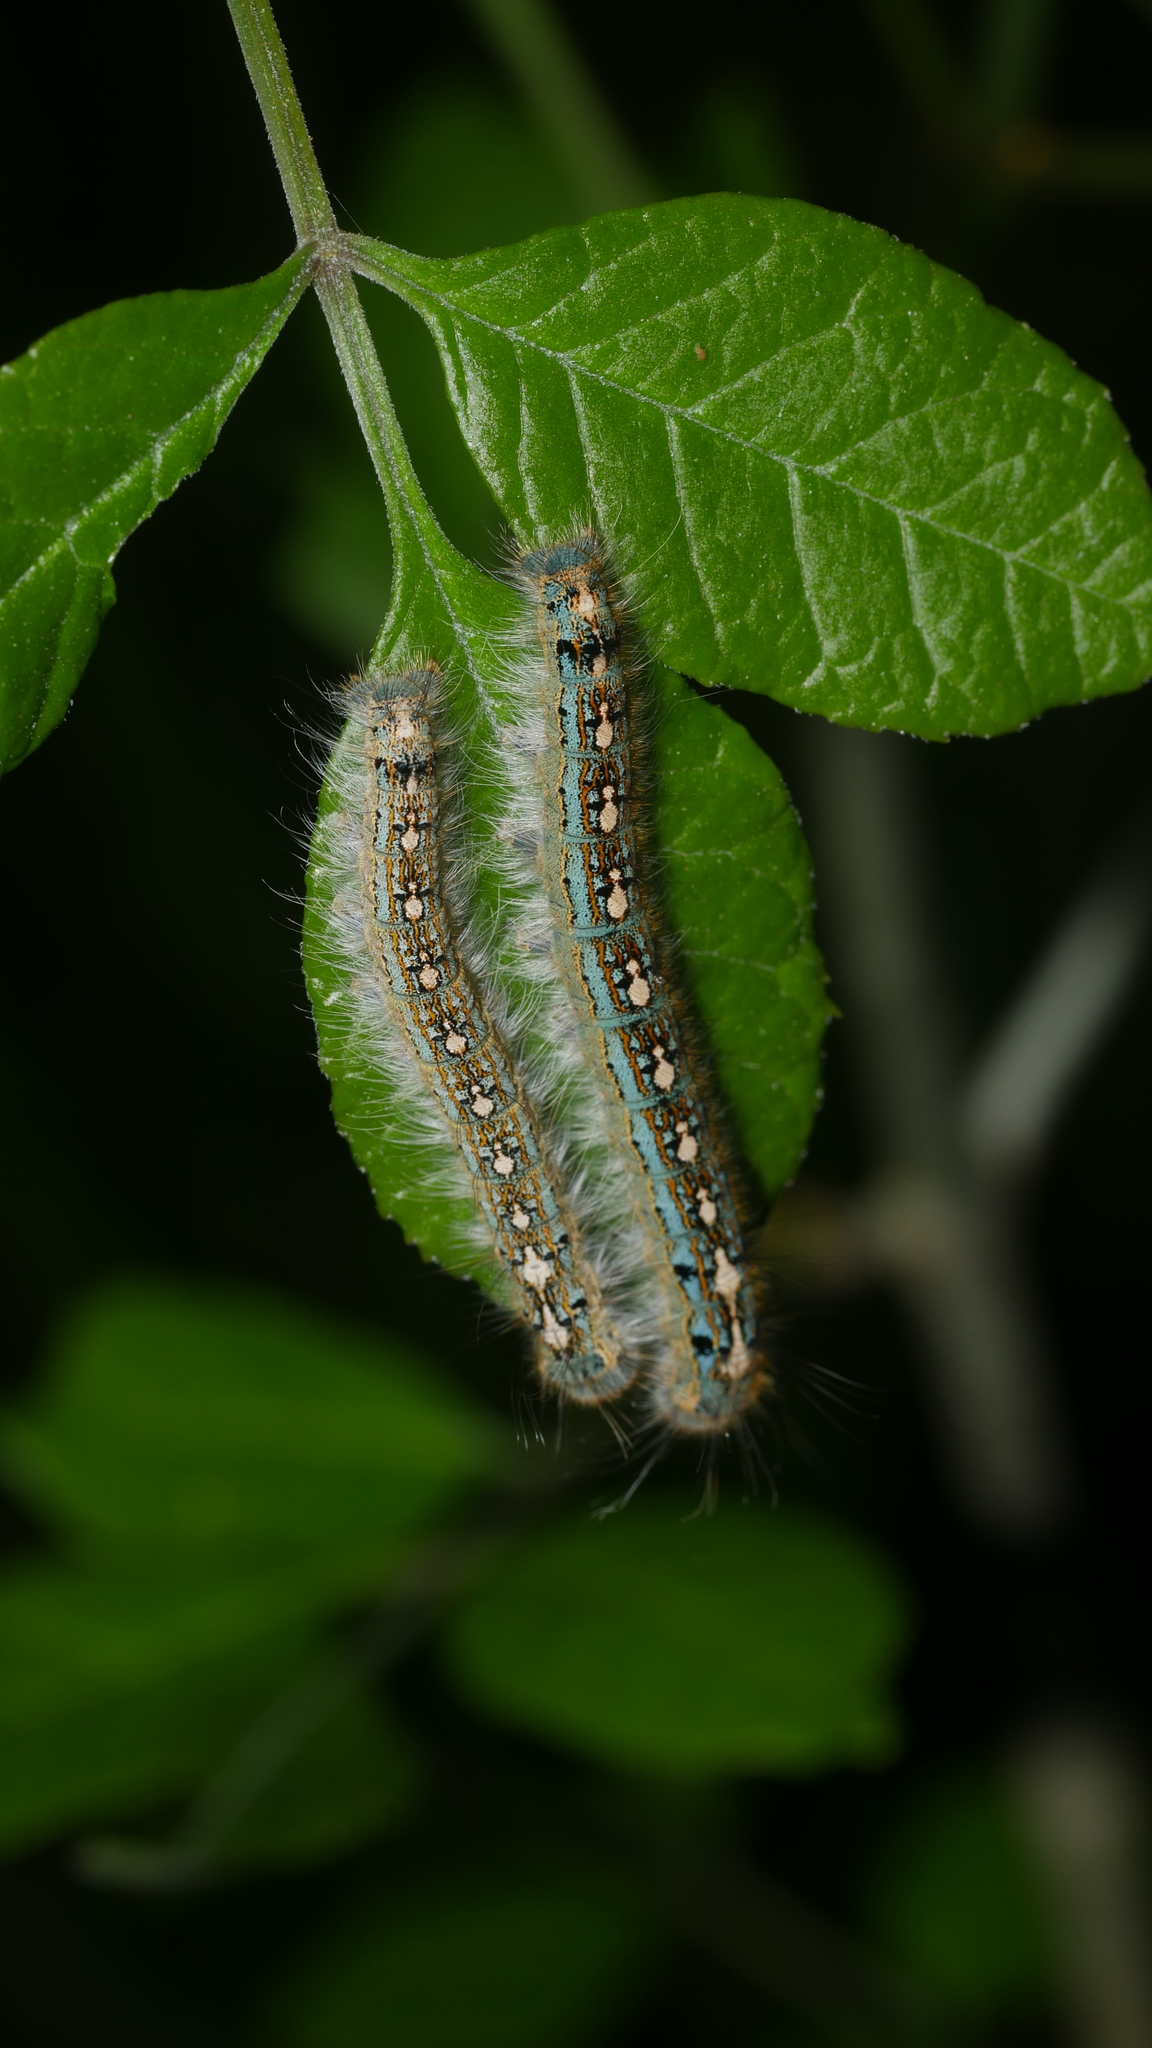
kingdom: Animalia
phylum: Arthropoda
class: Insecta
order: Lepidoptera
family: Lasiocampidae
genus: Malacosoma
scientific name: Malacosoma disstria
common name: Forest tent caterpillar
